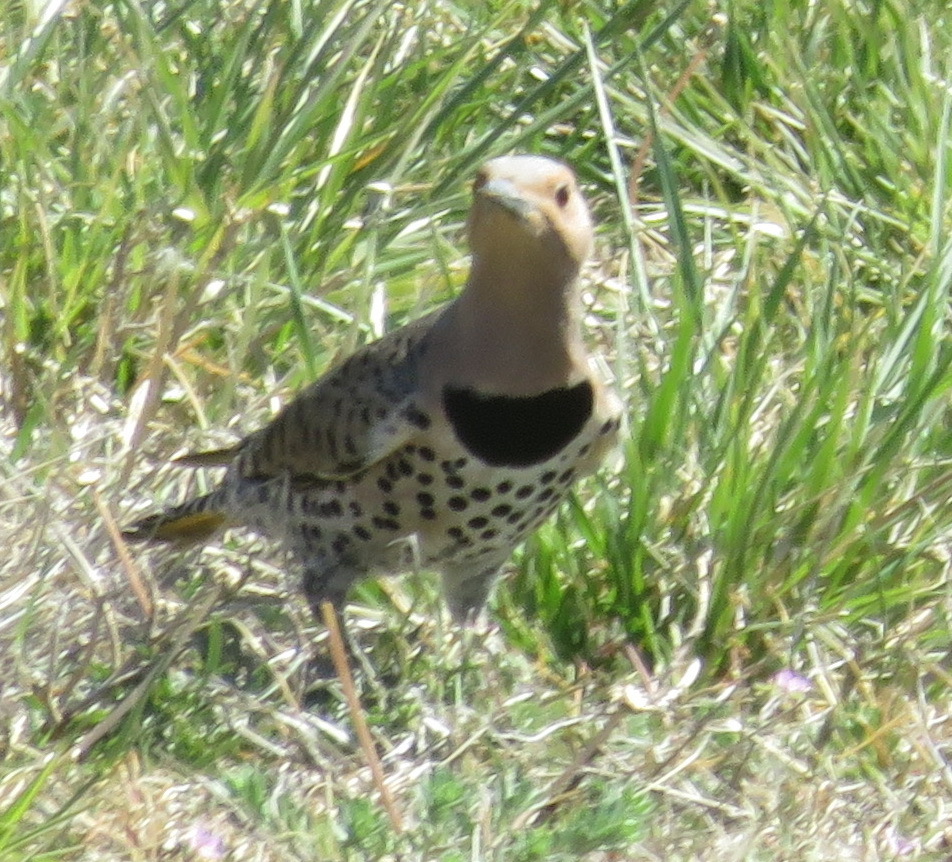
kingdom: Animalia
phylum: Chordata
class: Aves
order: Piciformes
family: Picidae
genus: Colaptes
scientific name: Colaptes auratus
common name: Northern flicker
